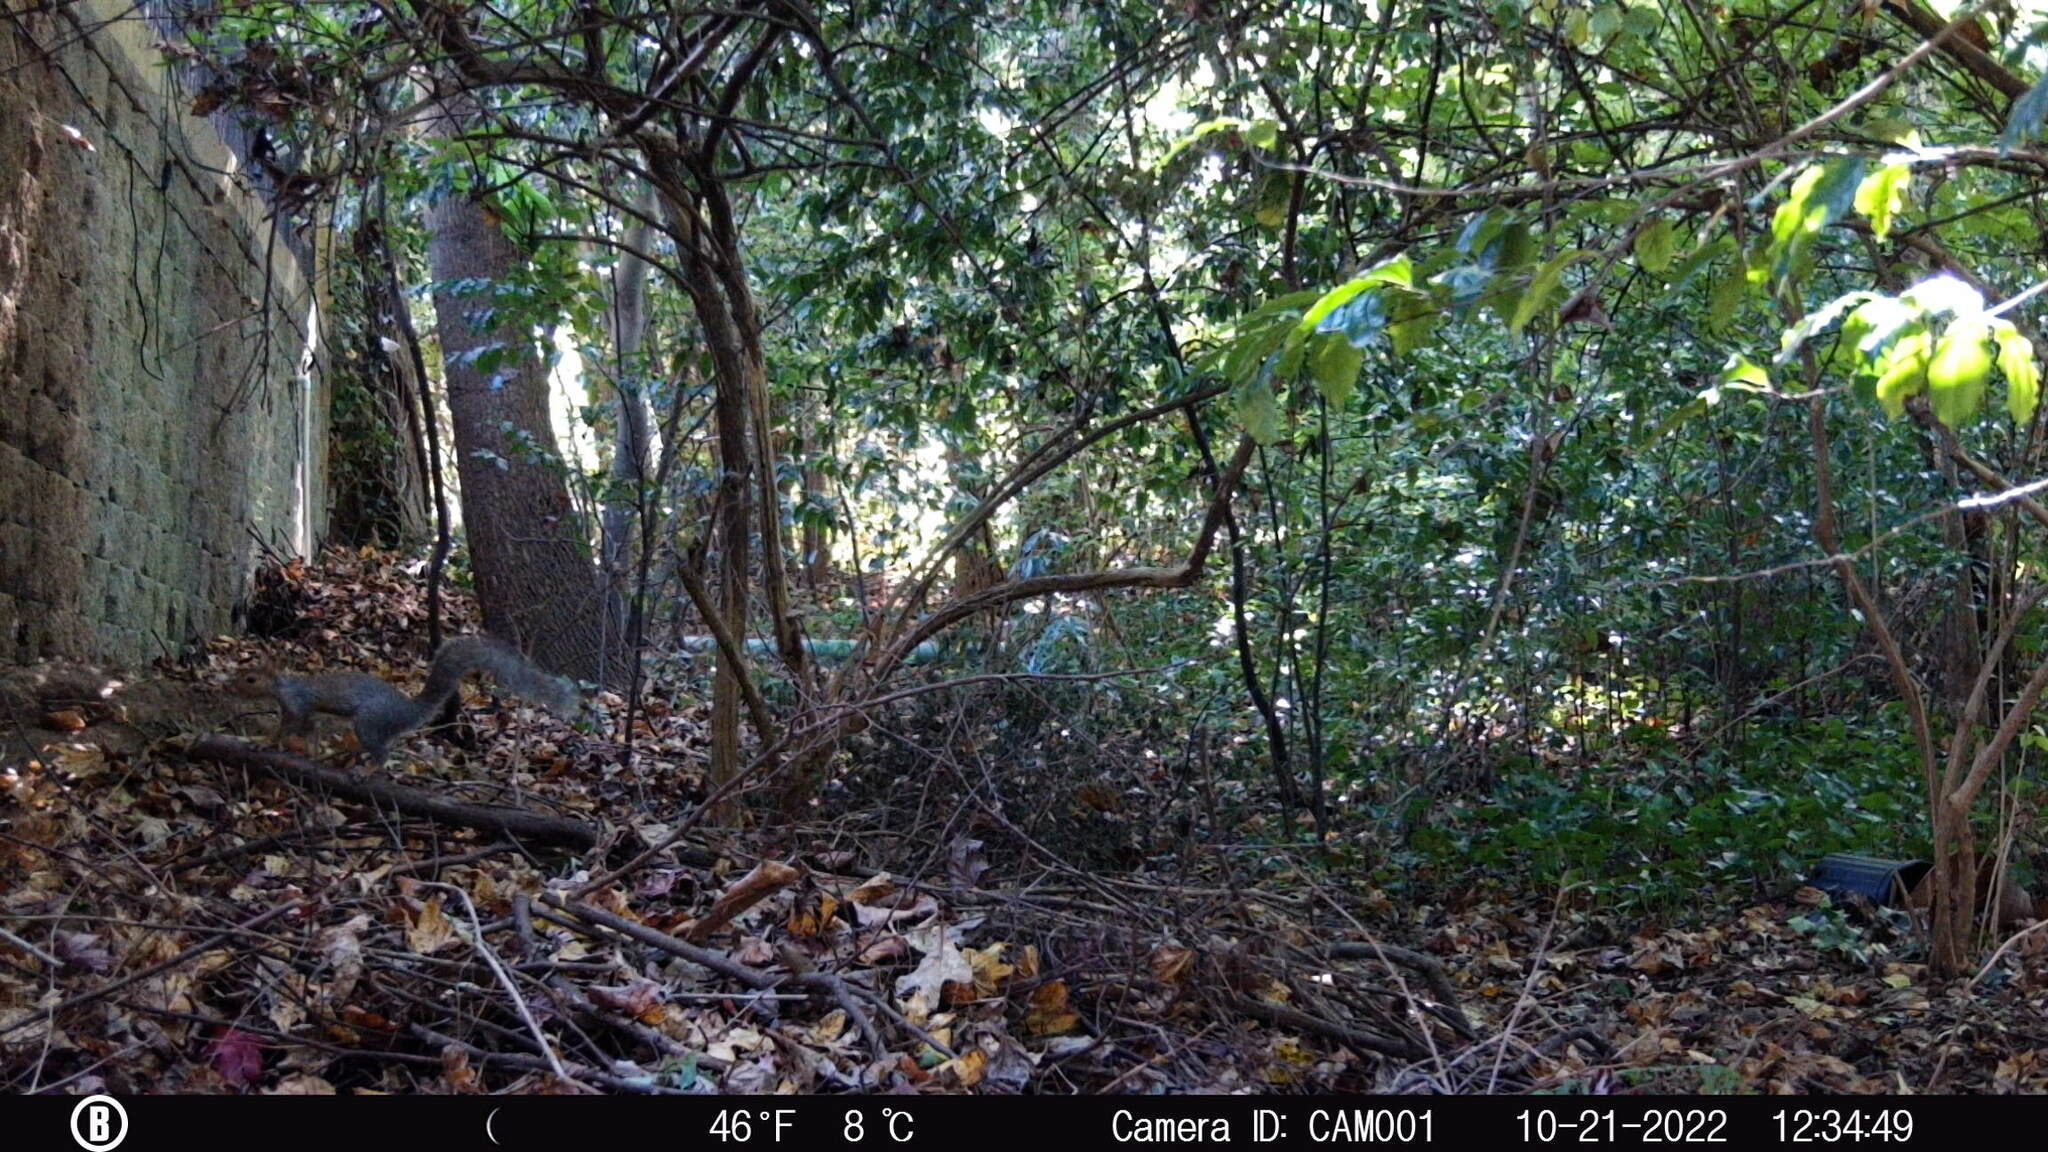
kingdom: Animalia
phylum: Chordata
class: Mammalia
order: Rodentia
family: Sciuridae
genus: Sciurus
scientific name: Sciurus carolinensis
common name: Eastern gray squirrel
